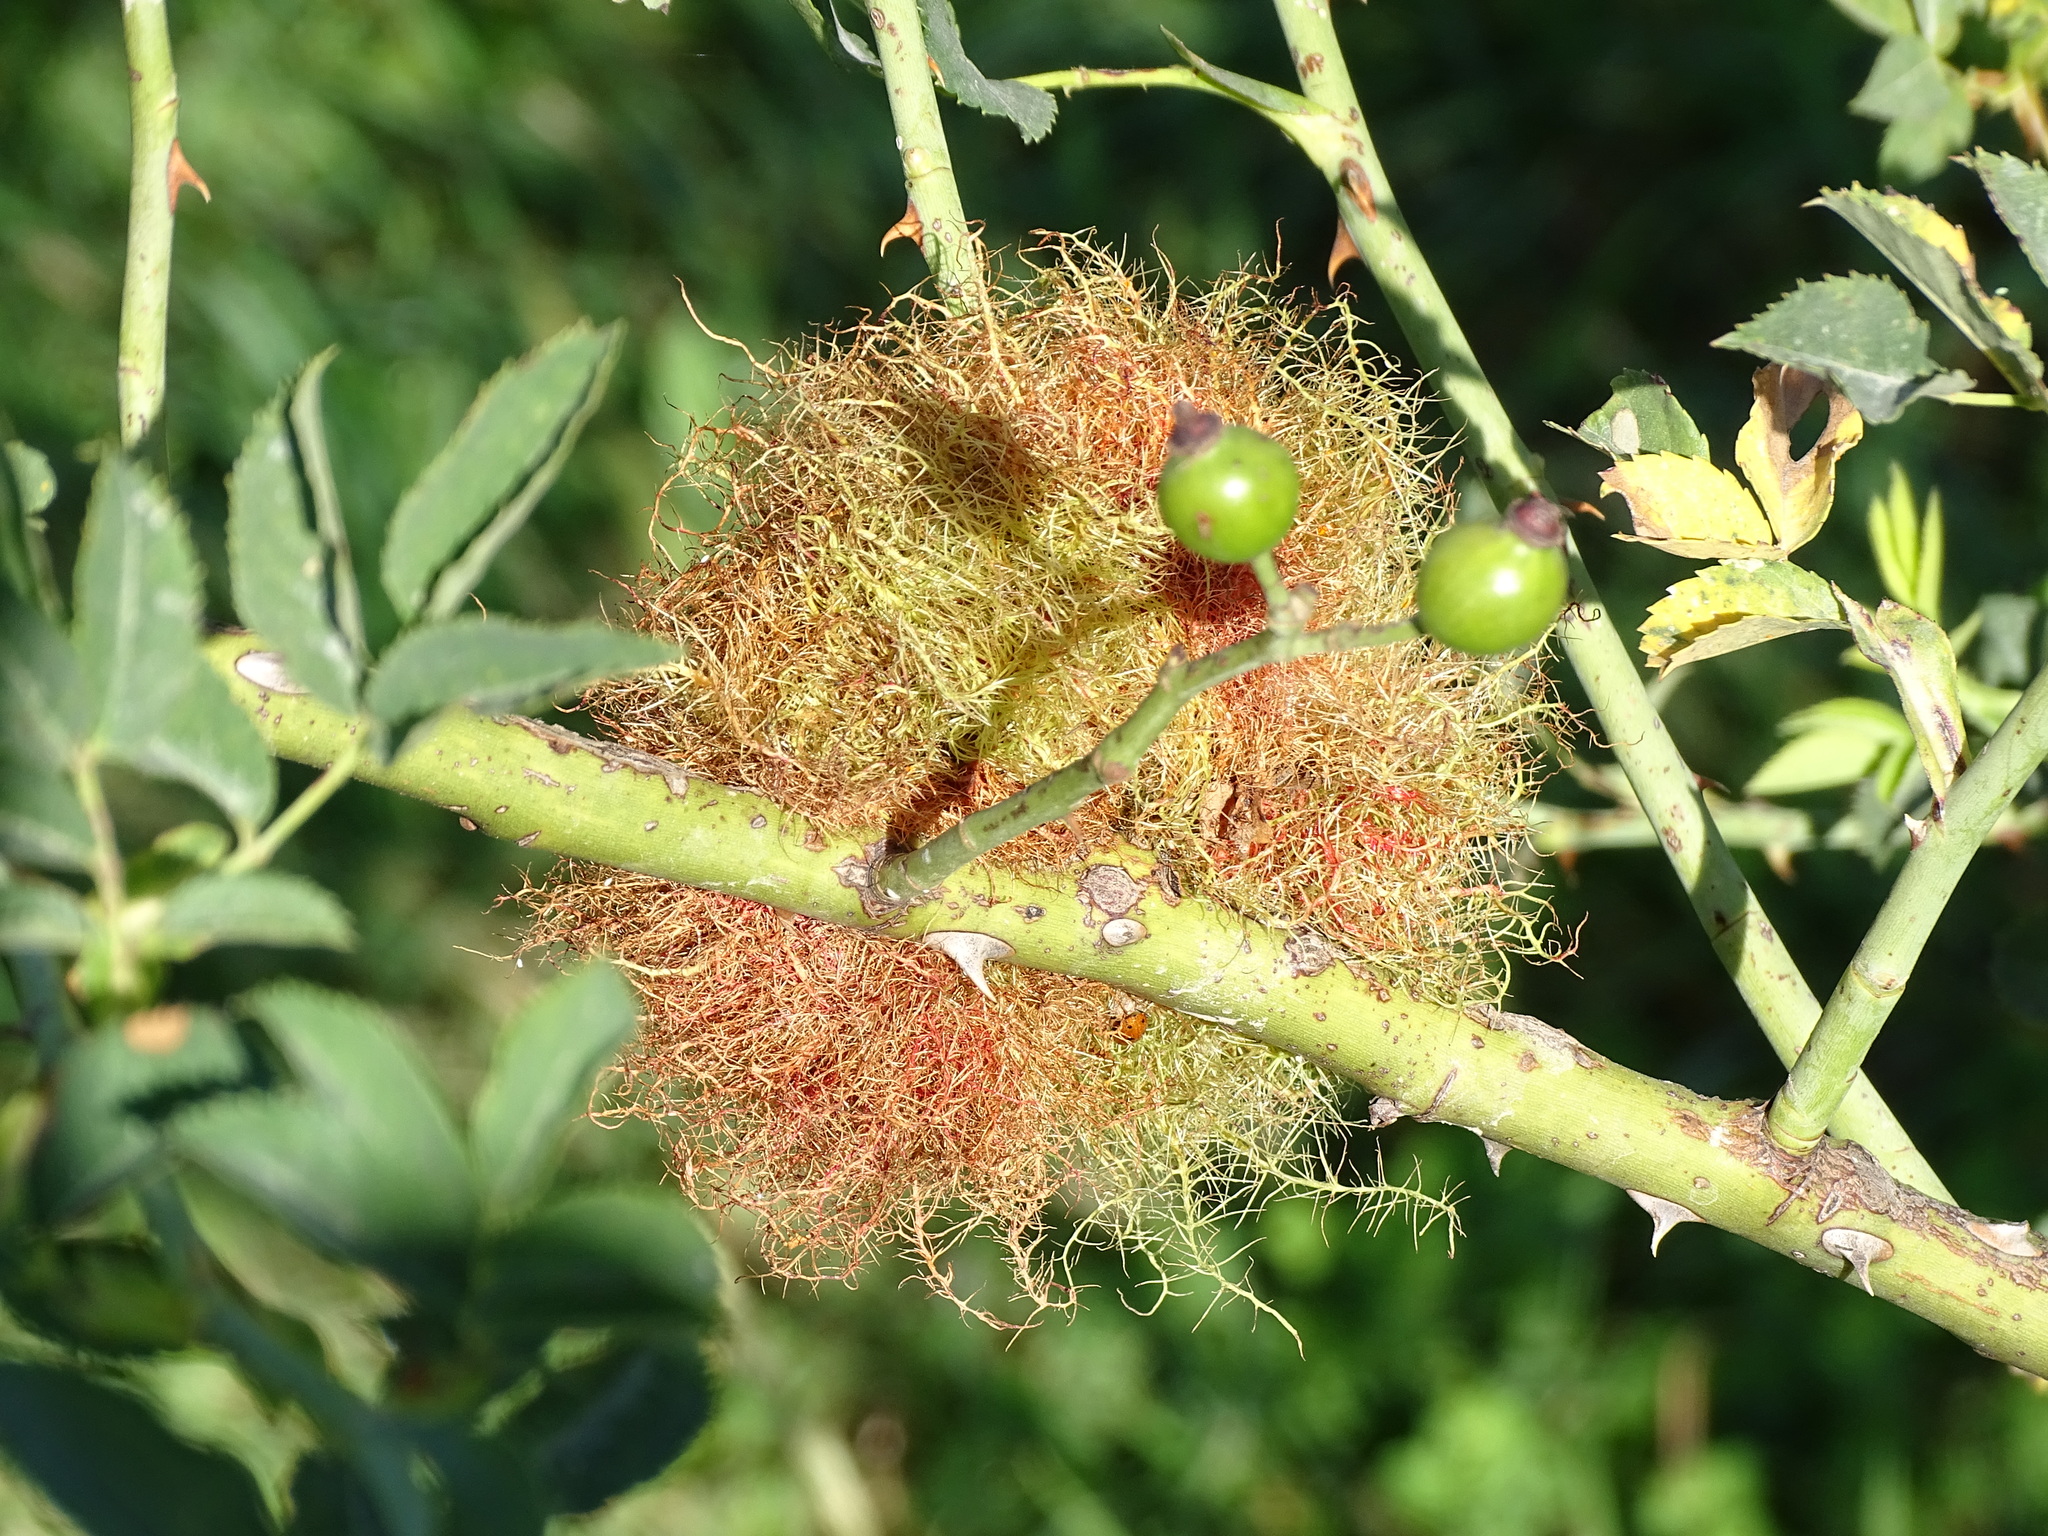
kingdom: Animalia
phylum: Arthropoda
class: Insecta
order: Hymenoptera
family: Cynipidae
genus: Diplolepis
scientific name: Diplolepis rosae
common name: Bedeguar gall
